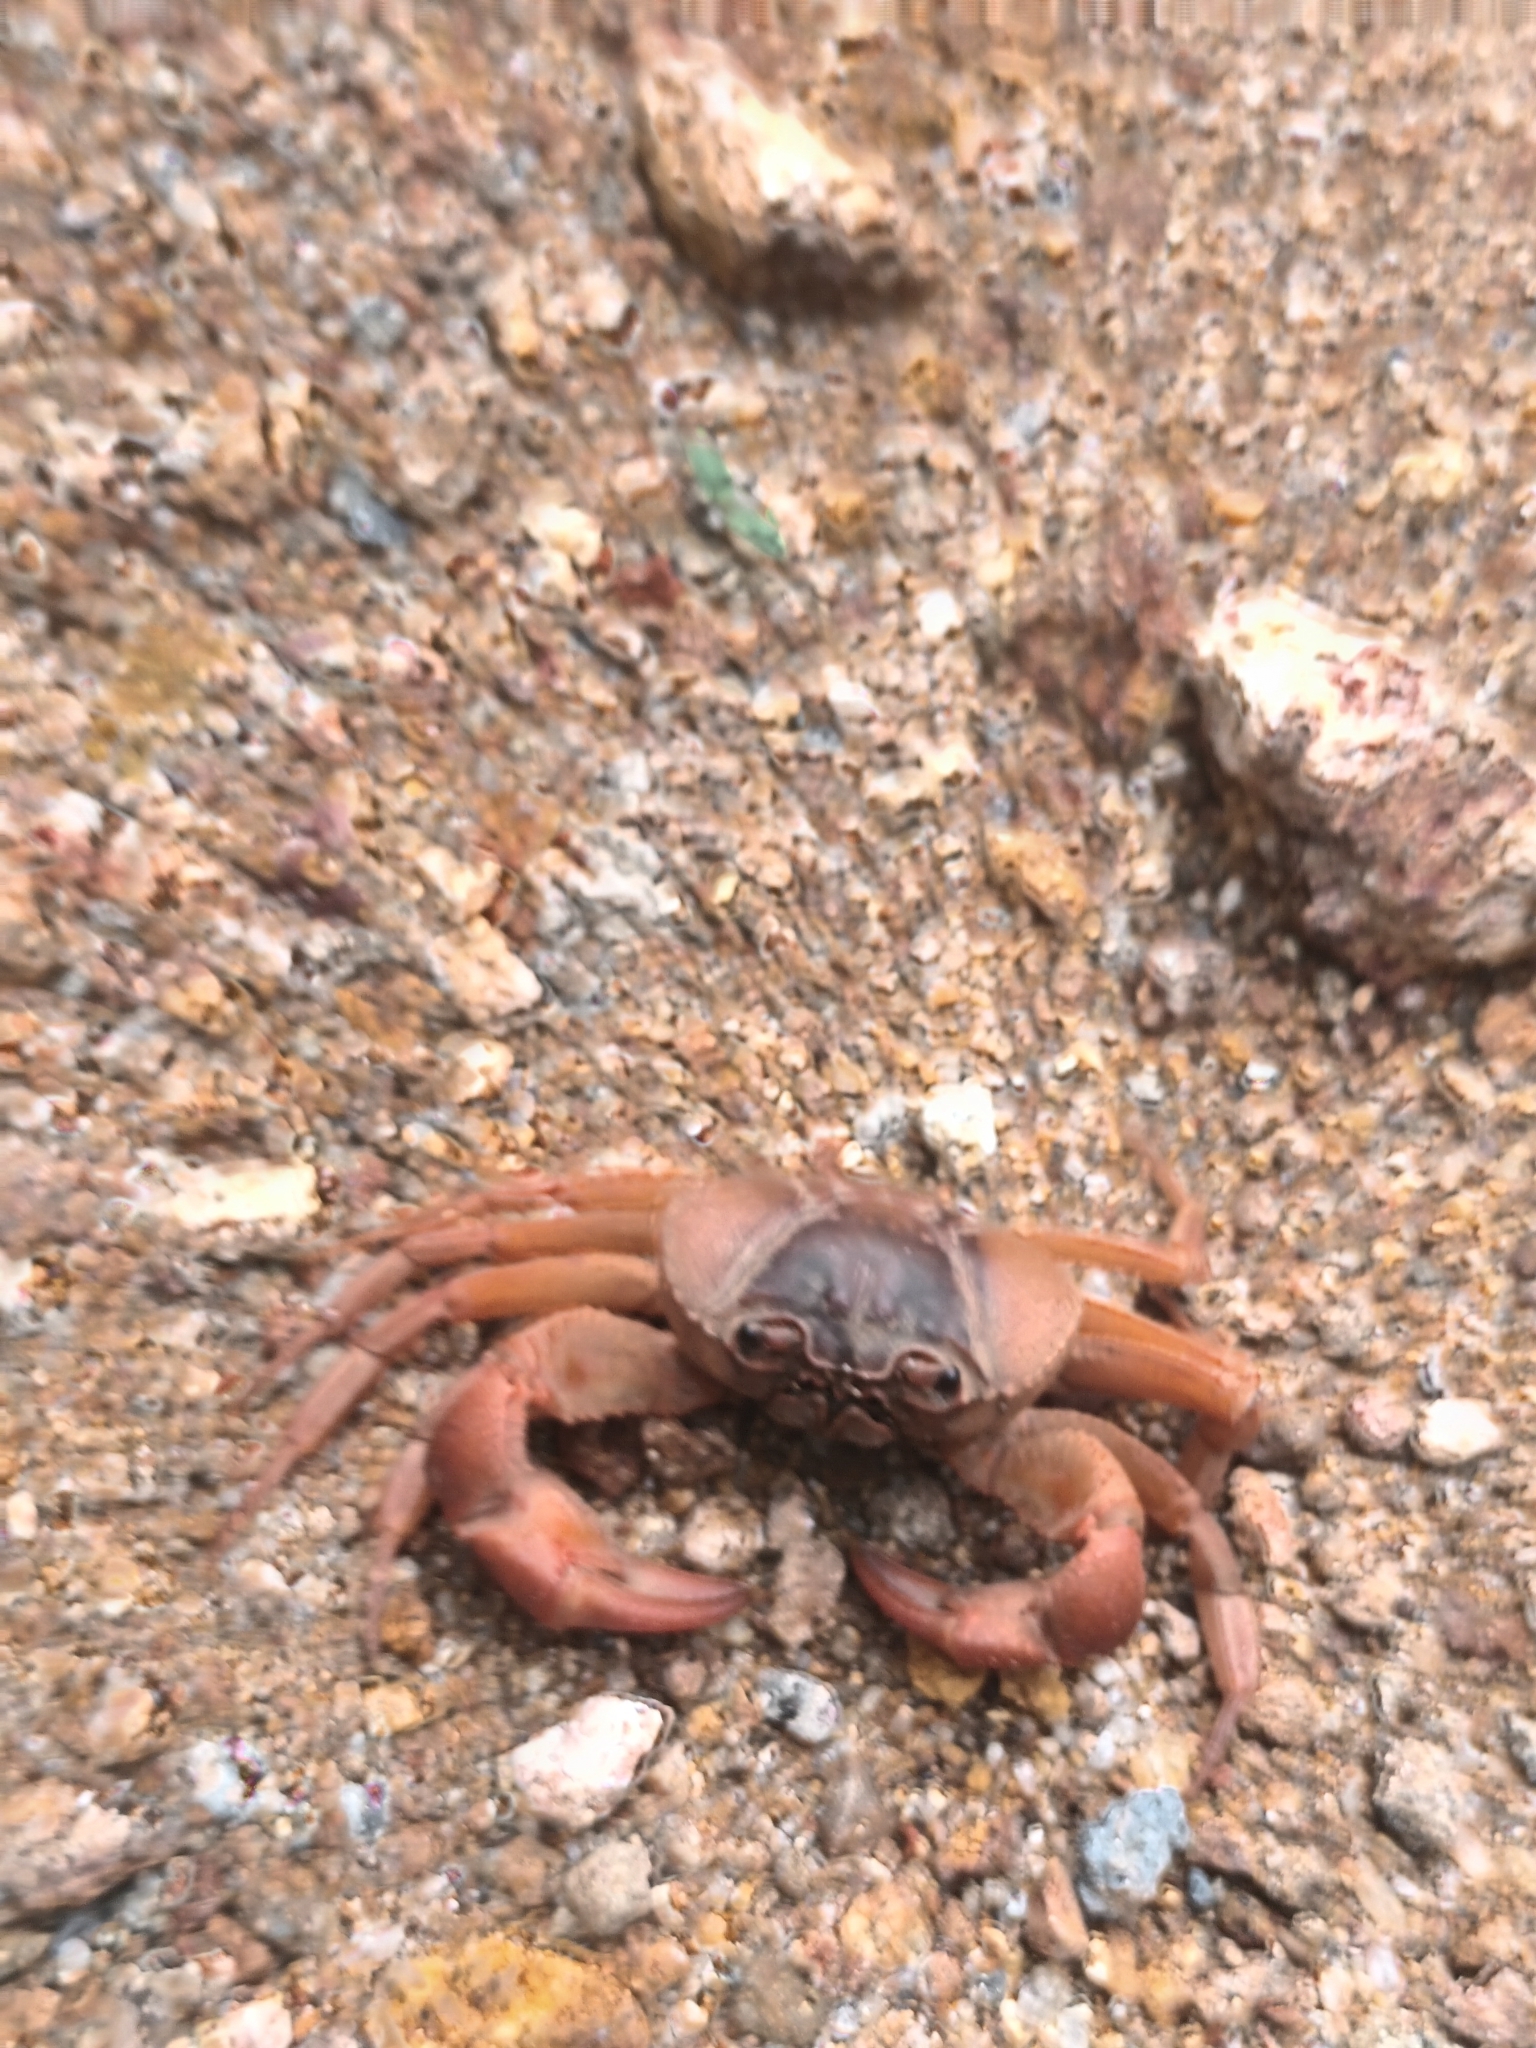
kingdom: Animalia
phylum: Arthropoda
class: Malacostraca
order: Decapoda
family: Gecarcinucidae
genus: Cylindrotelphusa
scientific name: Cylindrotelphusa steniops
